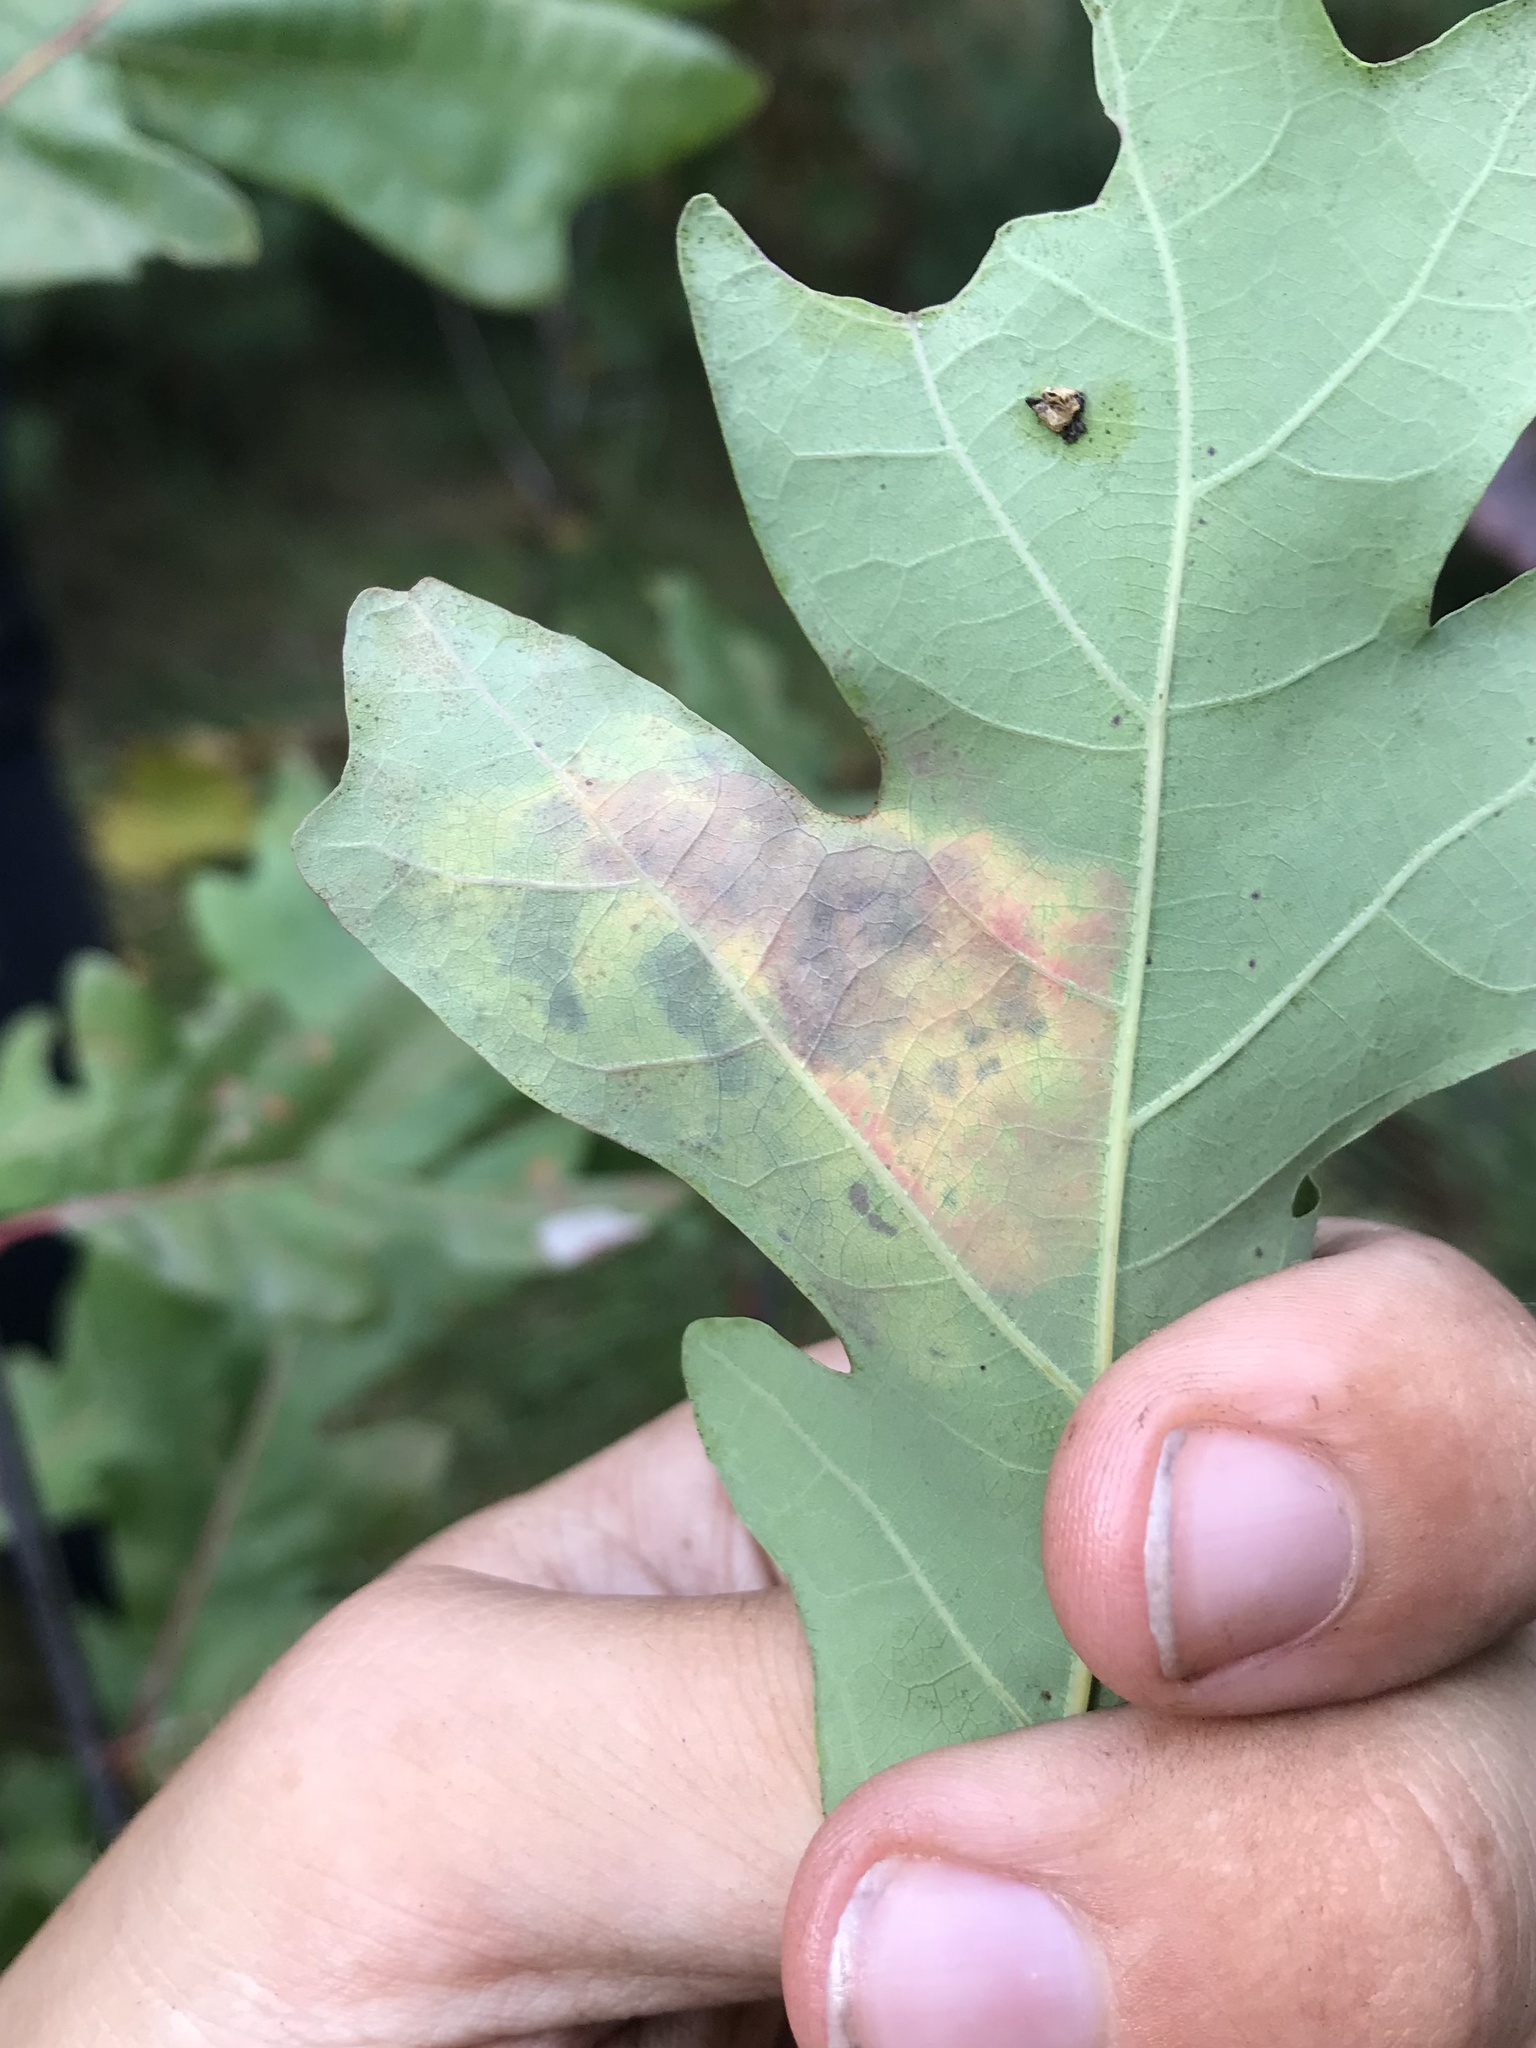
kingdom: Animalia
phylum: Arthropoda
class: Insecta
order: Hymenoptera
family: Tenthredinidae
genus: Profenusa
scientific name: Profenusa
